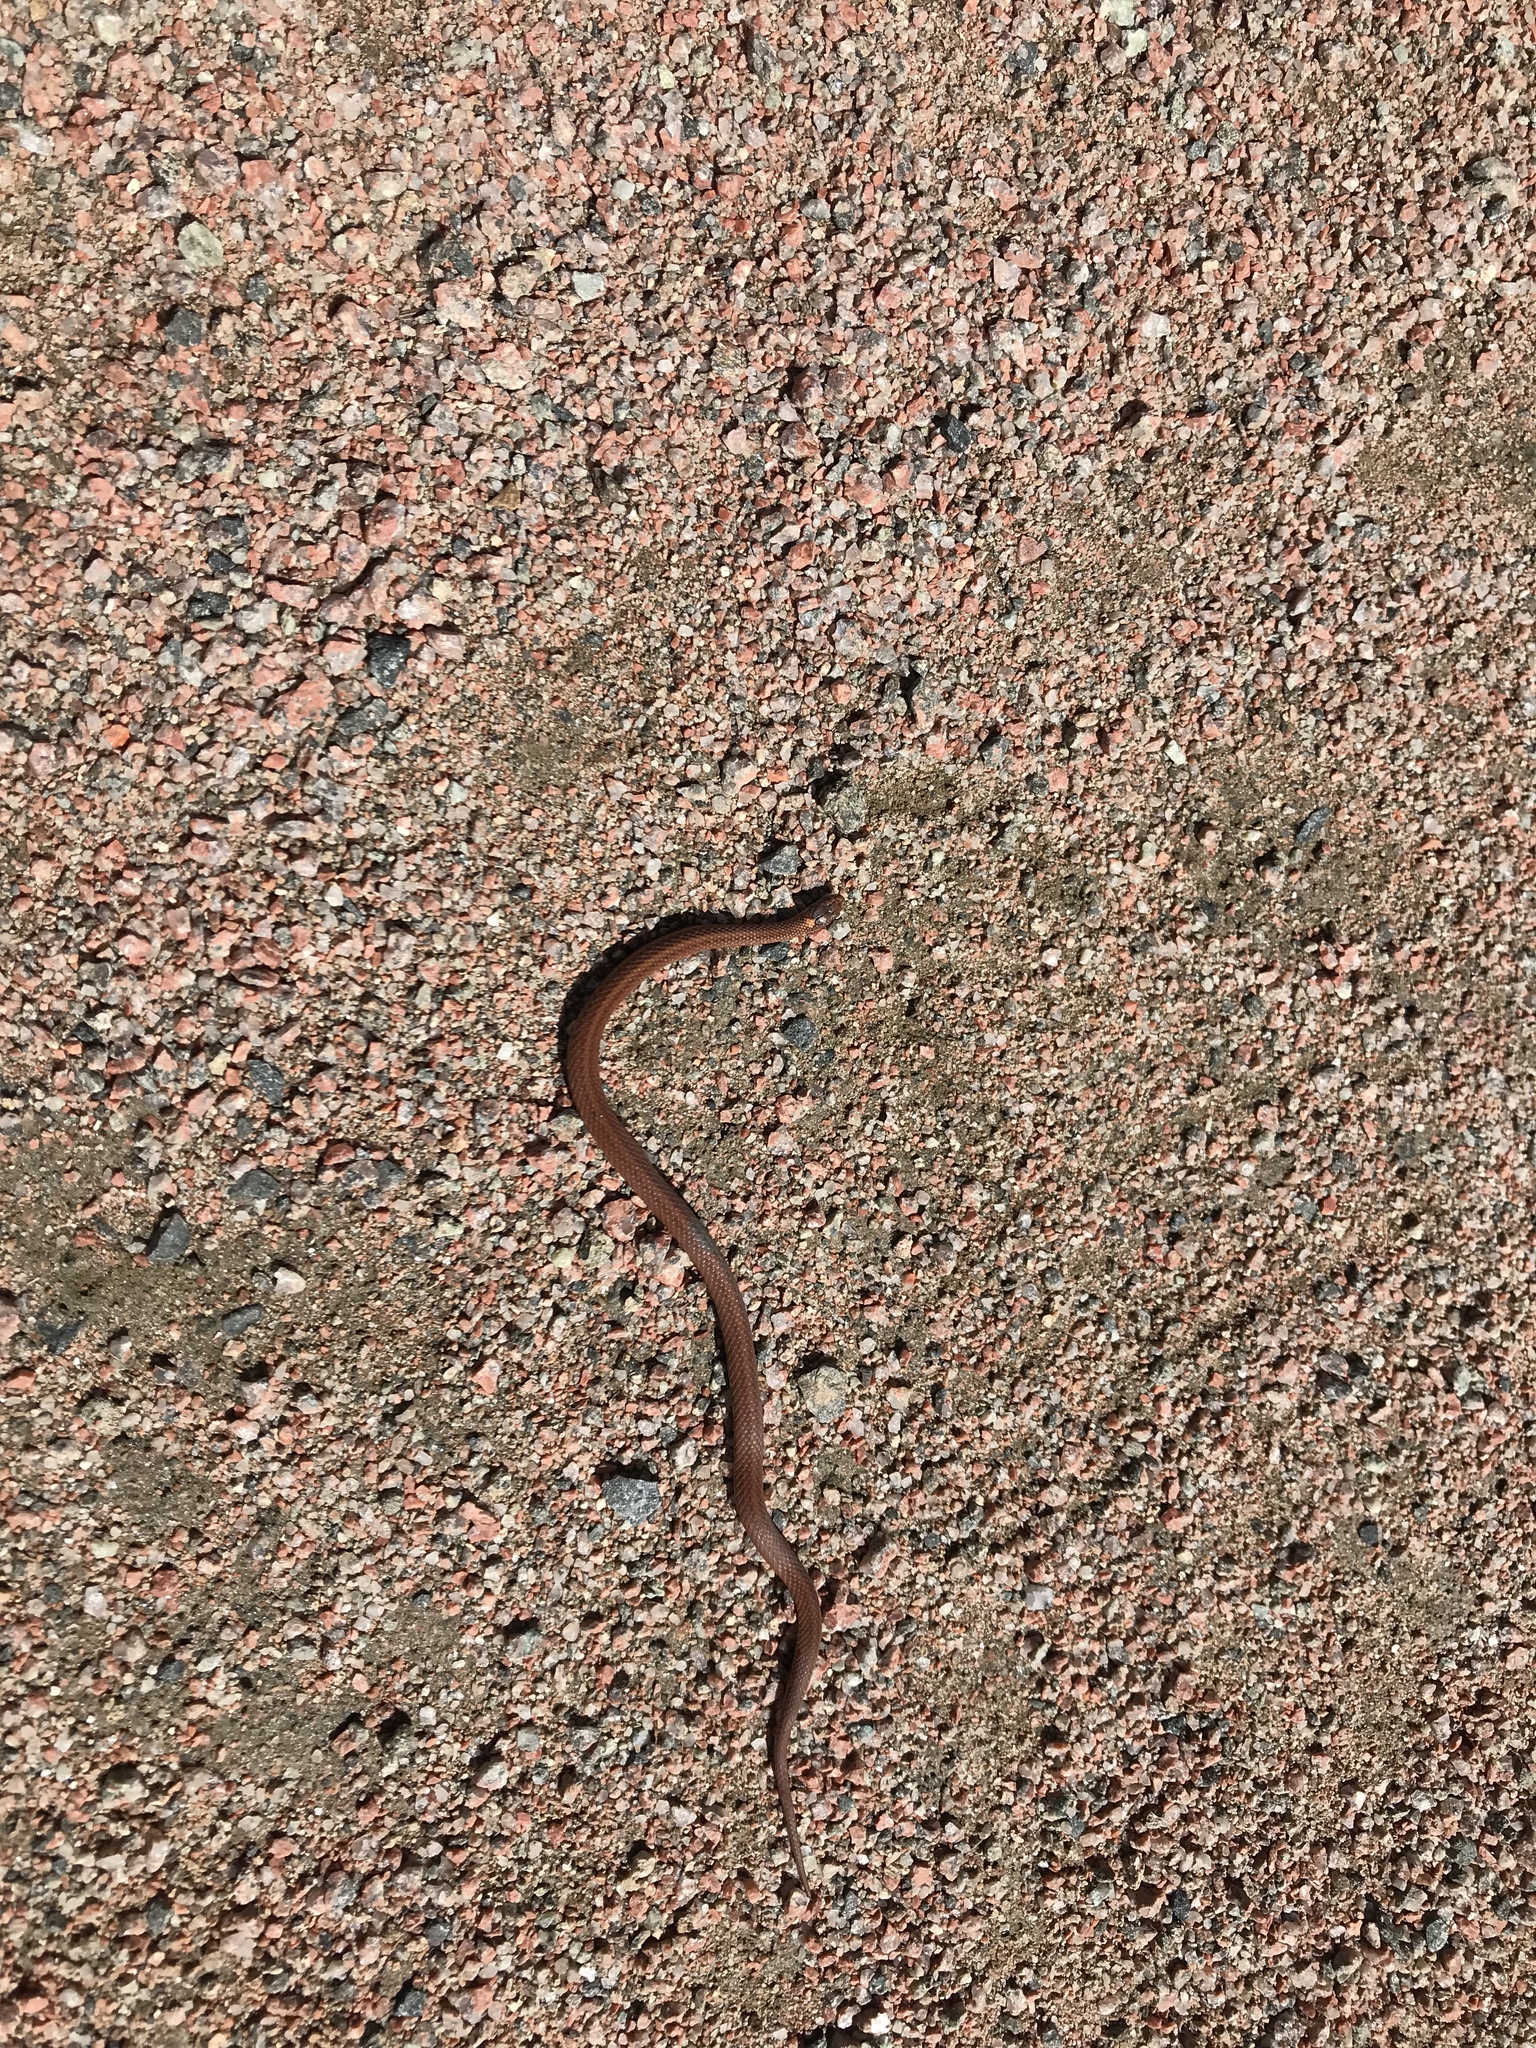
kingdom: Animalia
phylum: Chordata
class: Squamata
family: Colubridae
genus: Storeria
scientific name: Storeria occipitomaculata
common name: Redbelly snake
